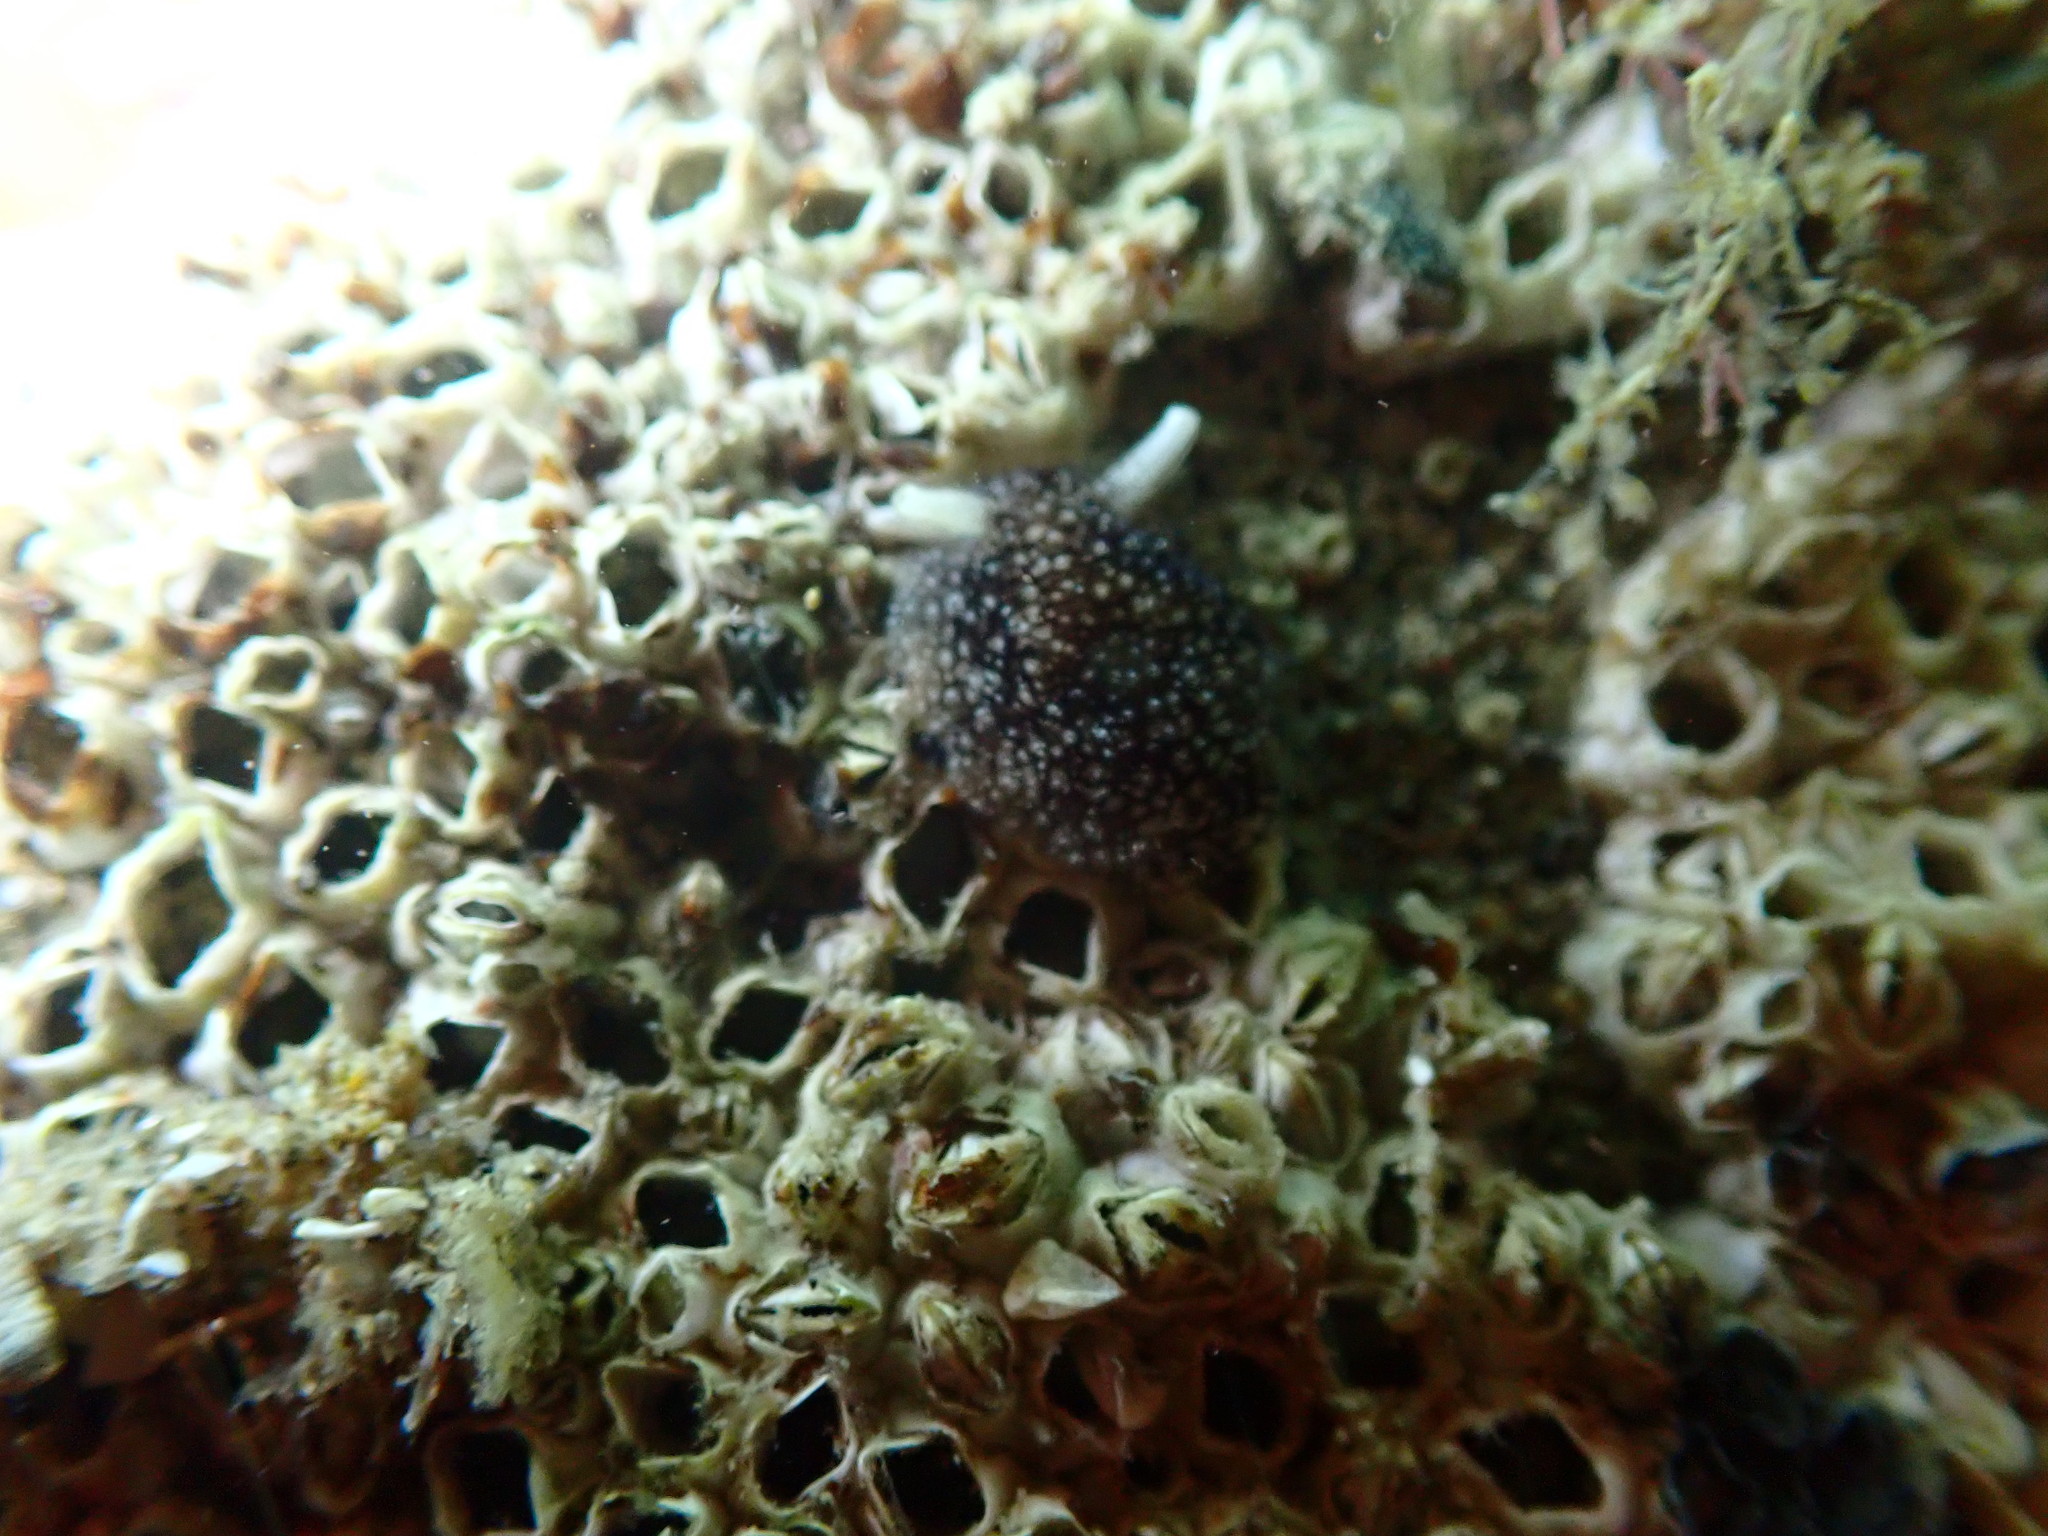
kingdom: Animalia
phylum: Mollusca
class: Gastropoda
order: Pleurobranchida
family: Pleurobranchaeidae
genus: Pleurobranchaea
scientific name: Pleurobranchaea maculata
